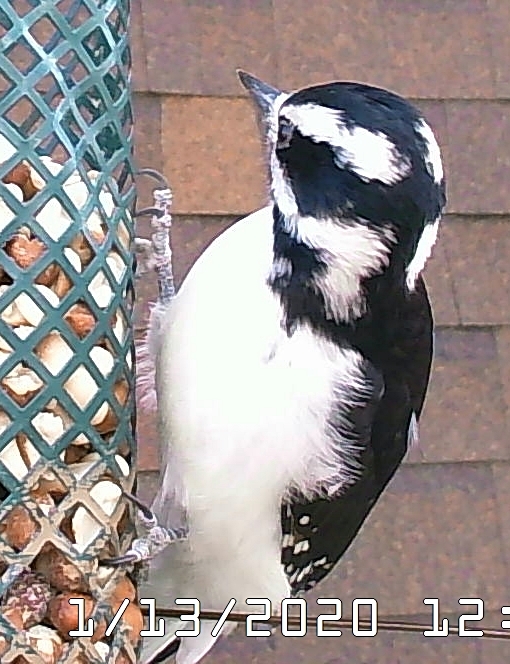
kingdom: Animalia
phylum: Chordata
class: Aves
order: Piciformes
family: Picidae
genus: Leuconotopicus
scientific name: Leuconotopicus villosus
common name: Hairy woodpecker
